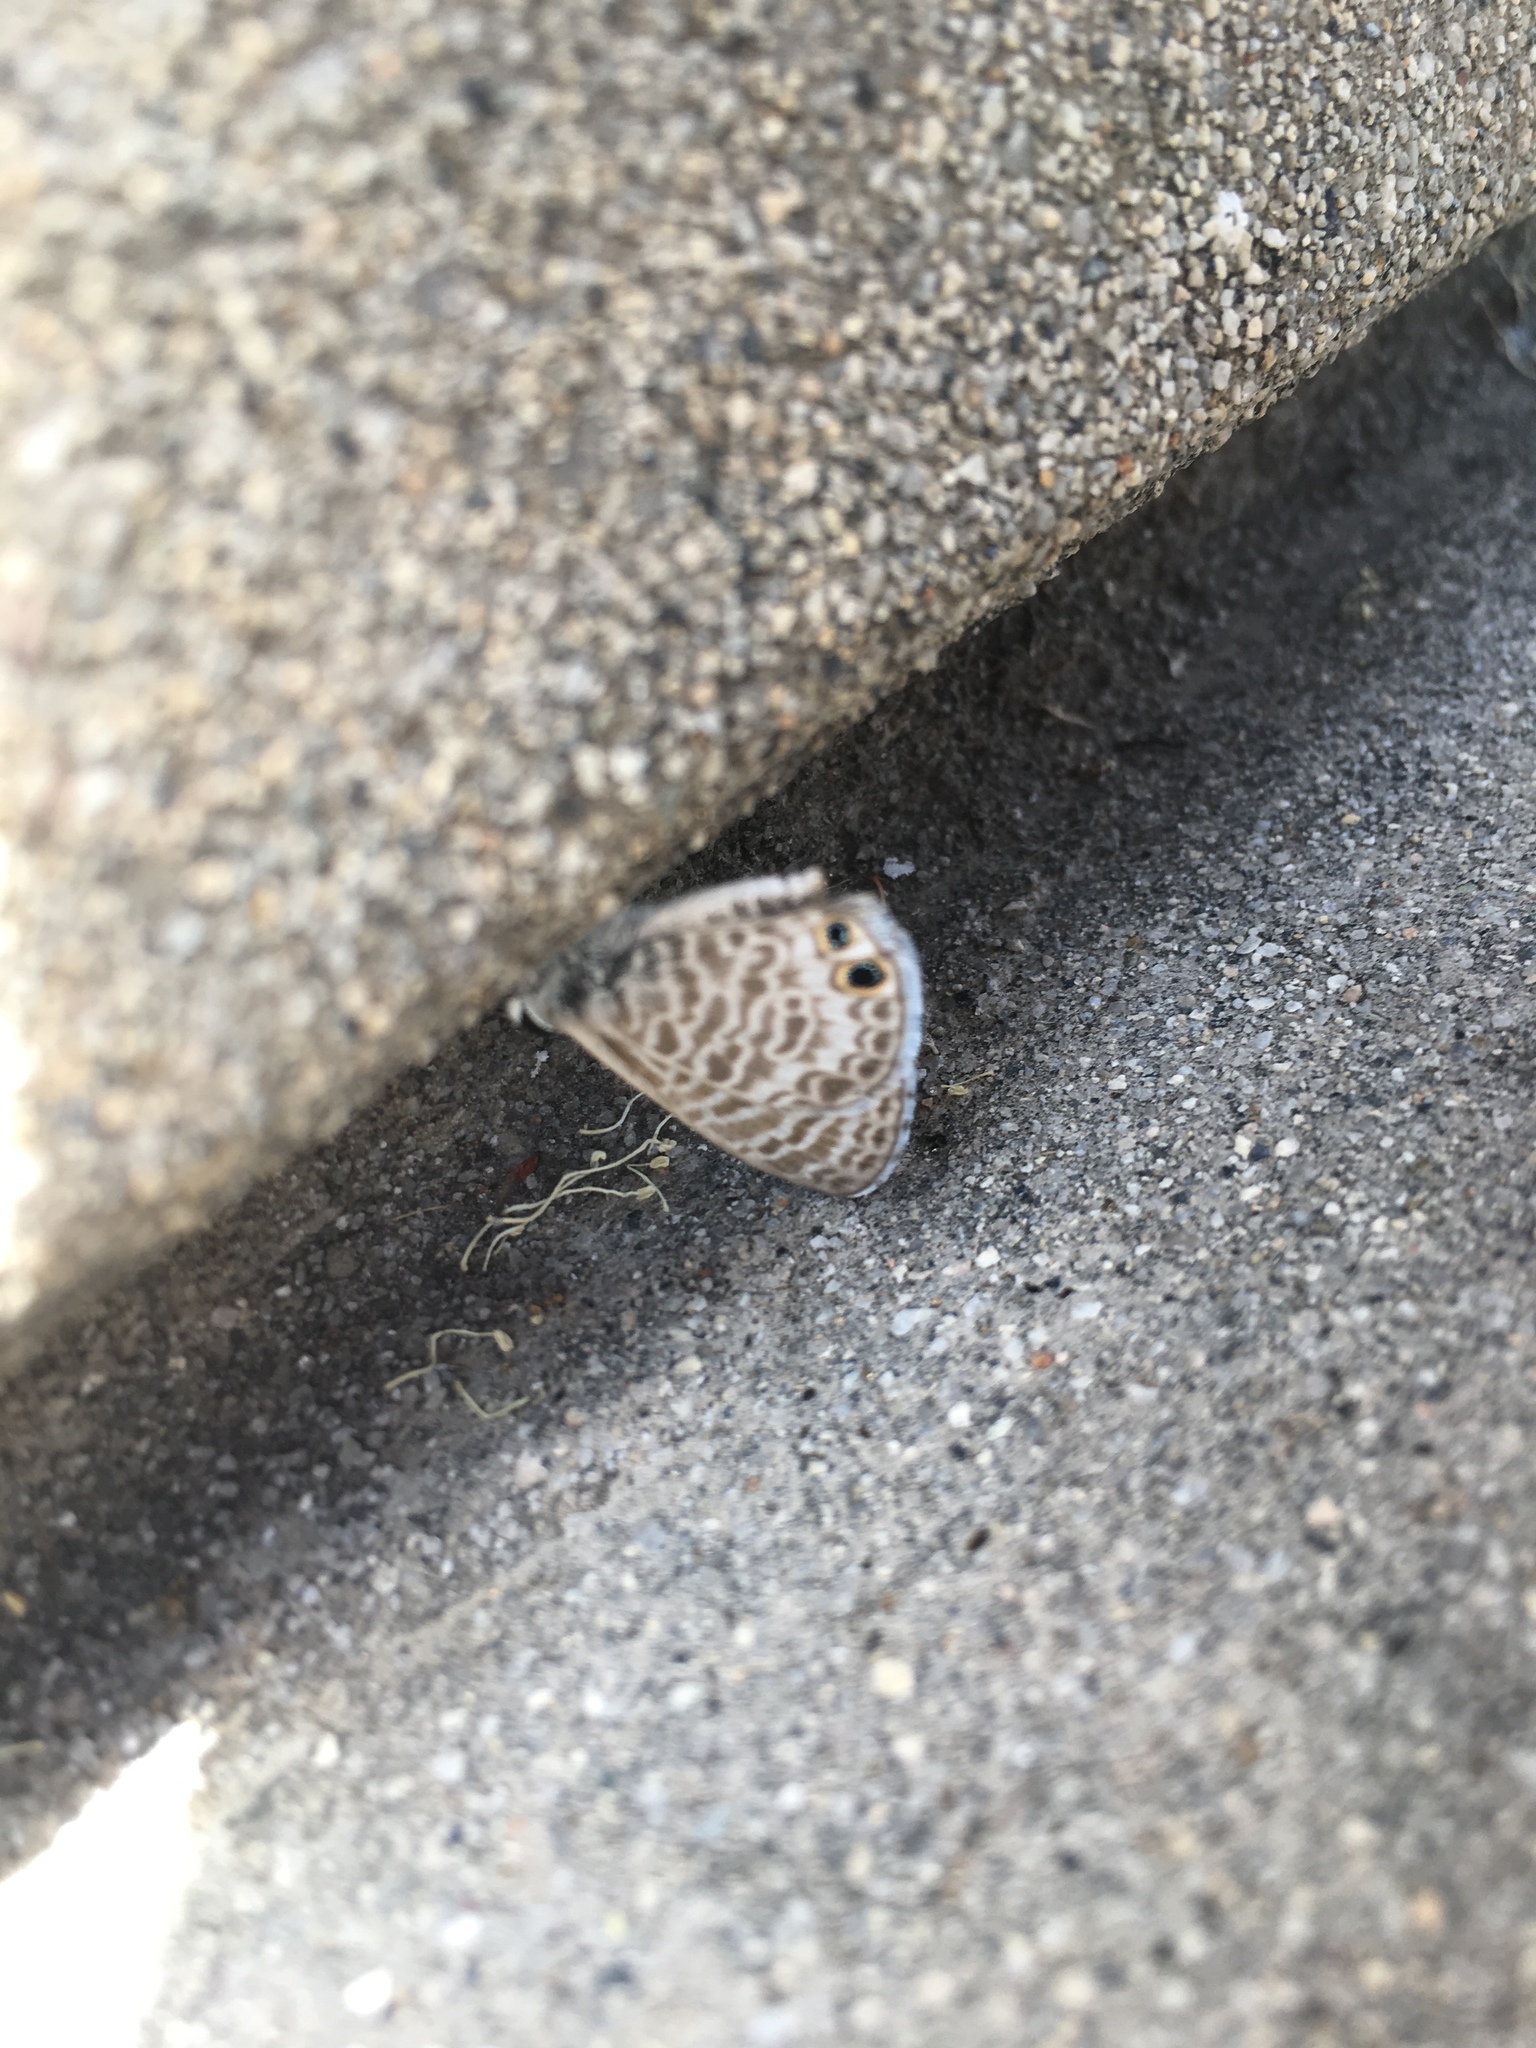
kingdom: Animalia
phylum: Arthropoda
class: Insecta
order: Lepidoptera
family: Lycaenidae
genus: Leptotes
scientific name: Leptotes marina
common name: Marine blue
